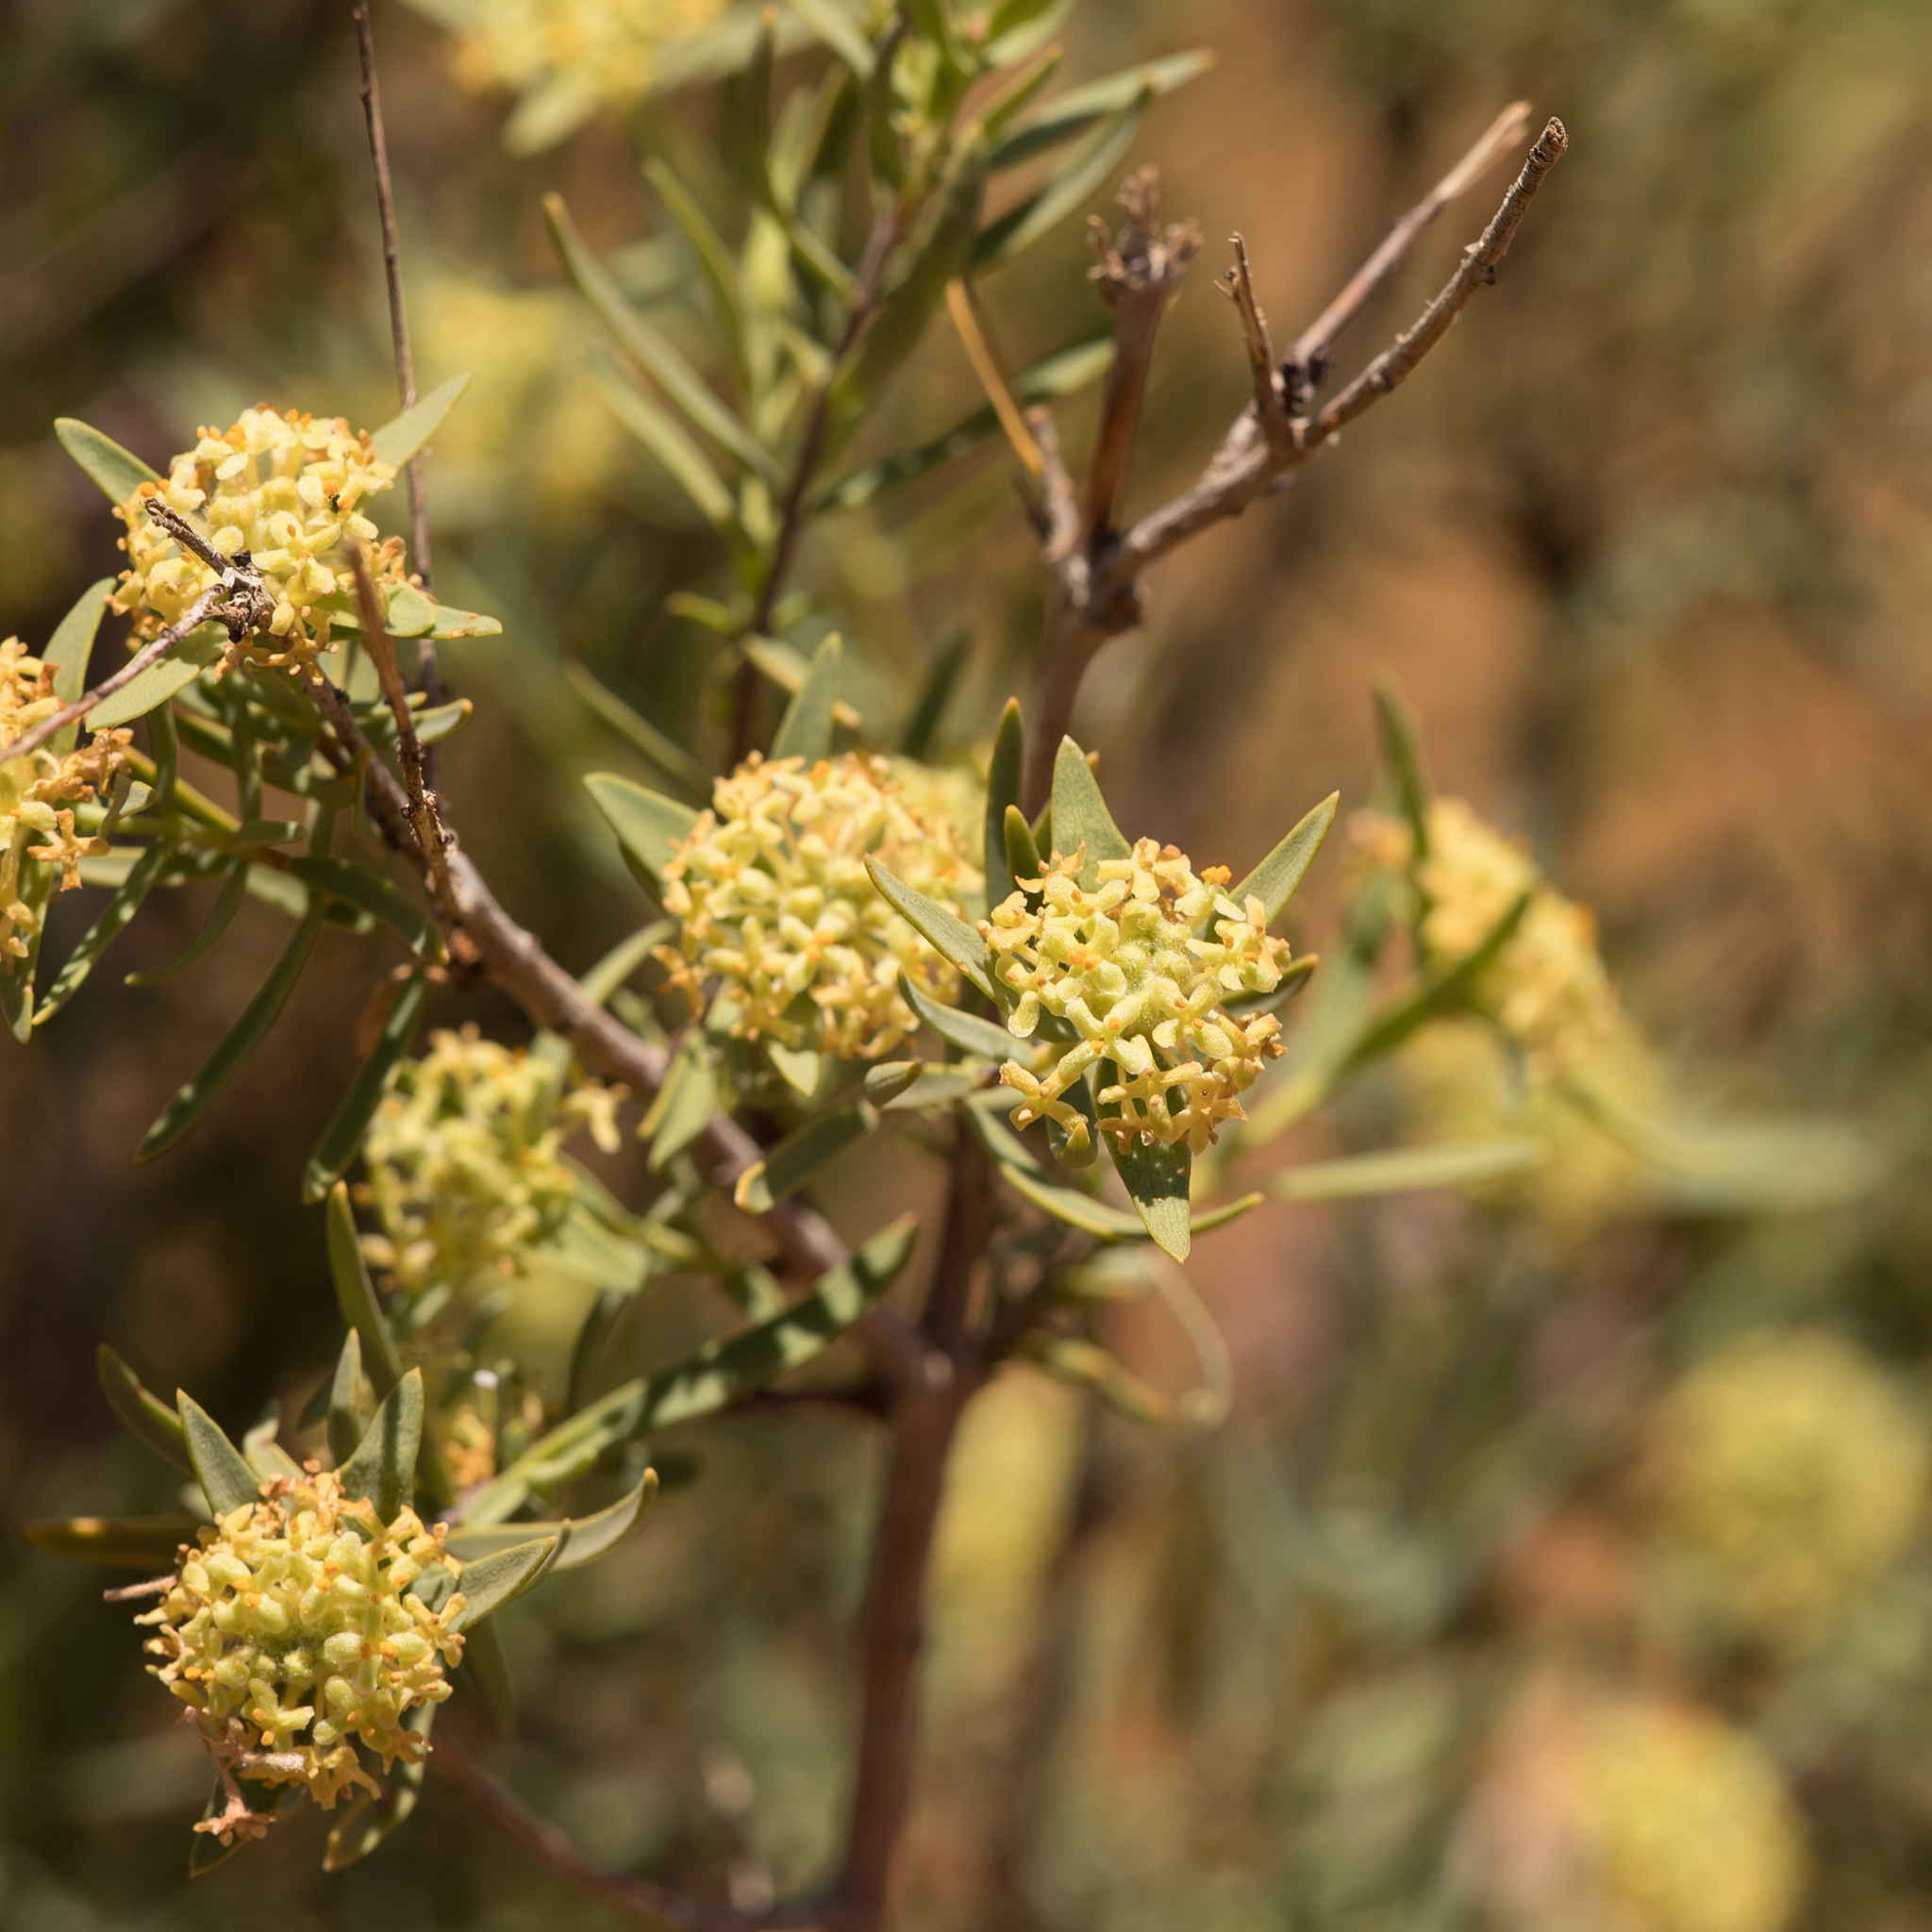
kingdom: Plantae
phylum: Tracheophyta
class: Magnoliopsida
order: Malvales
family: Thymelaeaceae
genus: Pimelea
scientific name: Pimelea microcephala
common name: Mallee riceflower
